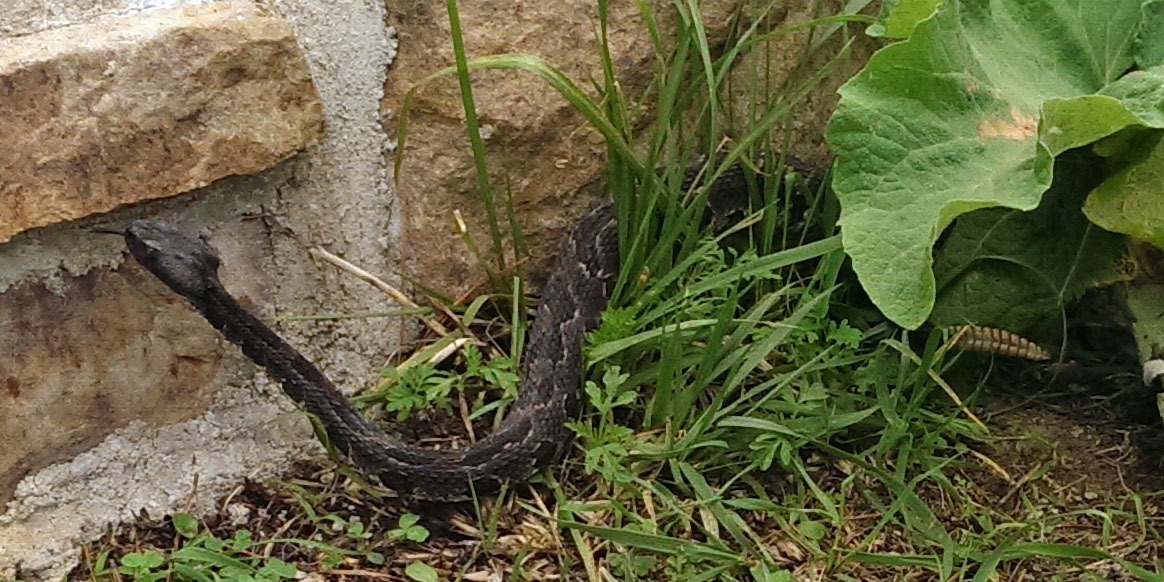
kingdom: Animalia
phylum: Chordata
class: Squamata
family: Viperidae
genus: Crotalus
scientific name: Crotalus horridus
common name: Timber rattlesnake
